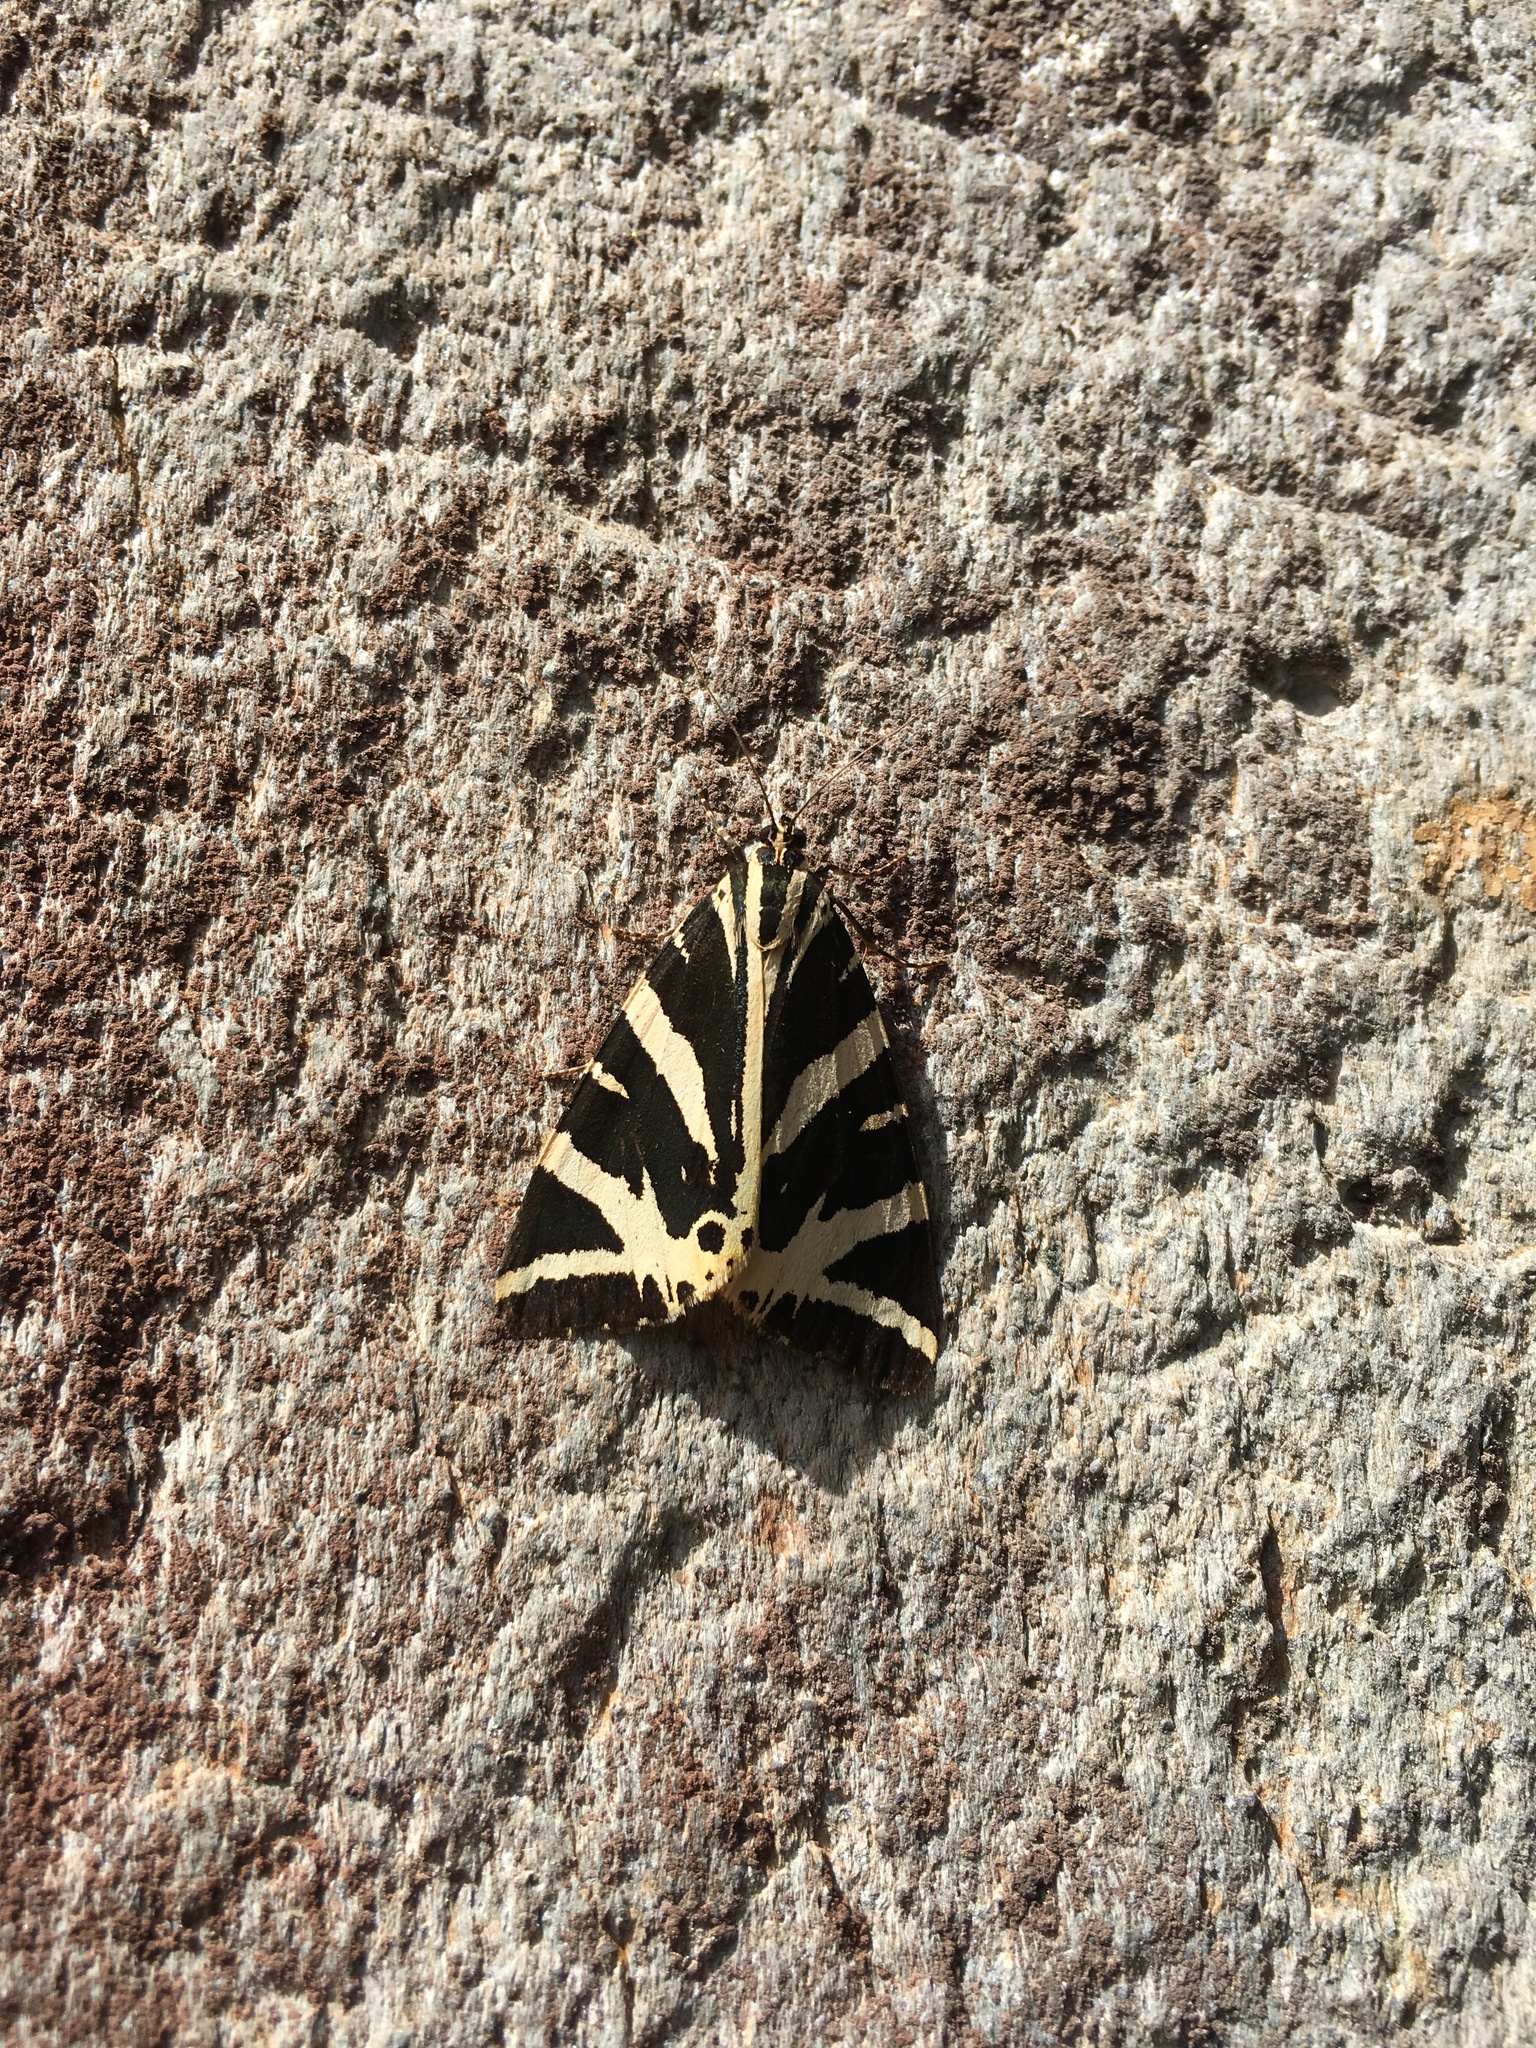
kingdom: Animalia
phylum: Arthropoda
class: Insecta
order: Lepidoptera
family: Erebidae
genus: Euplagia
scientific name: Euplagia quadripunctaria
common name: Jersey tiger
